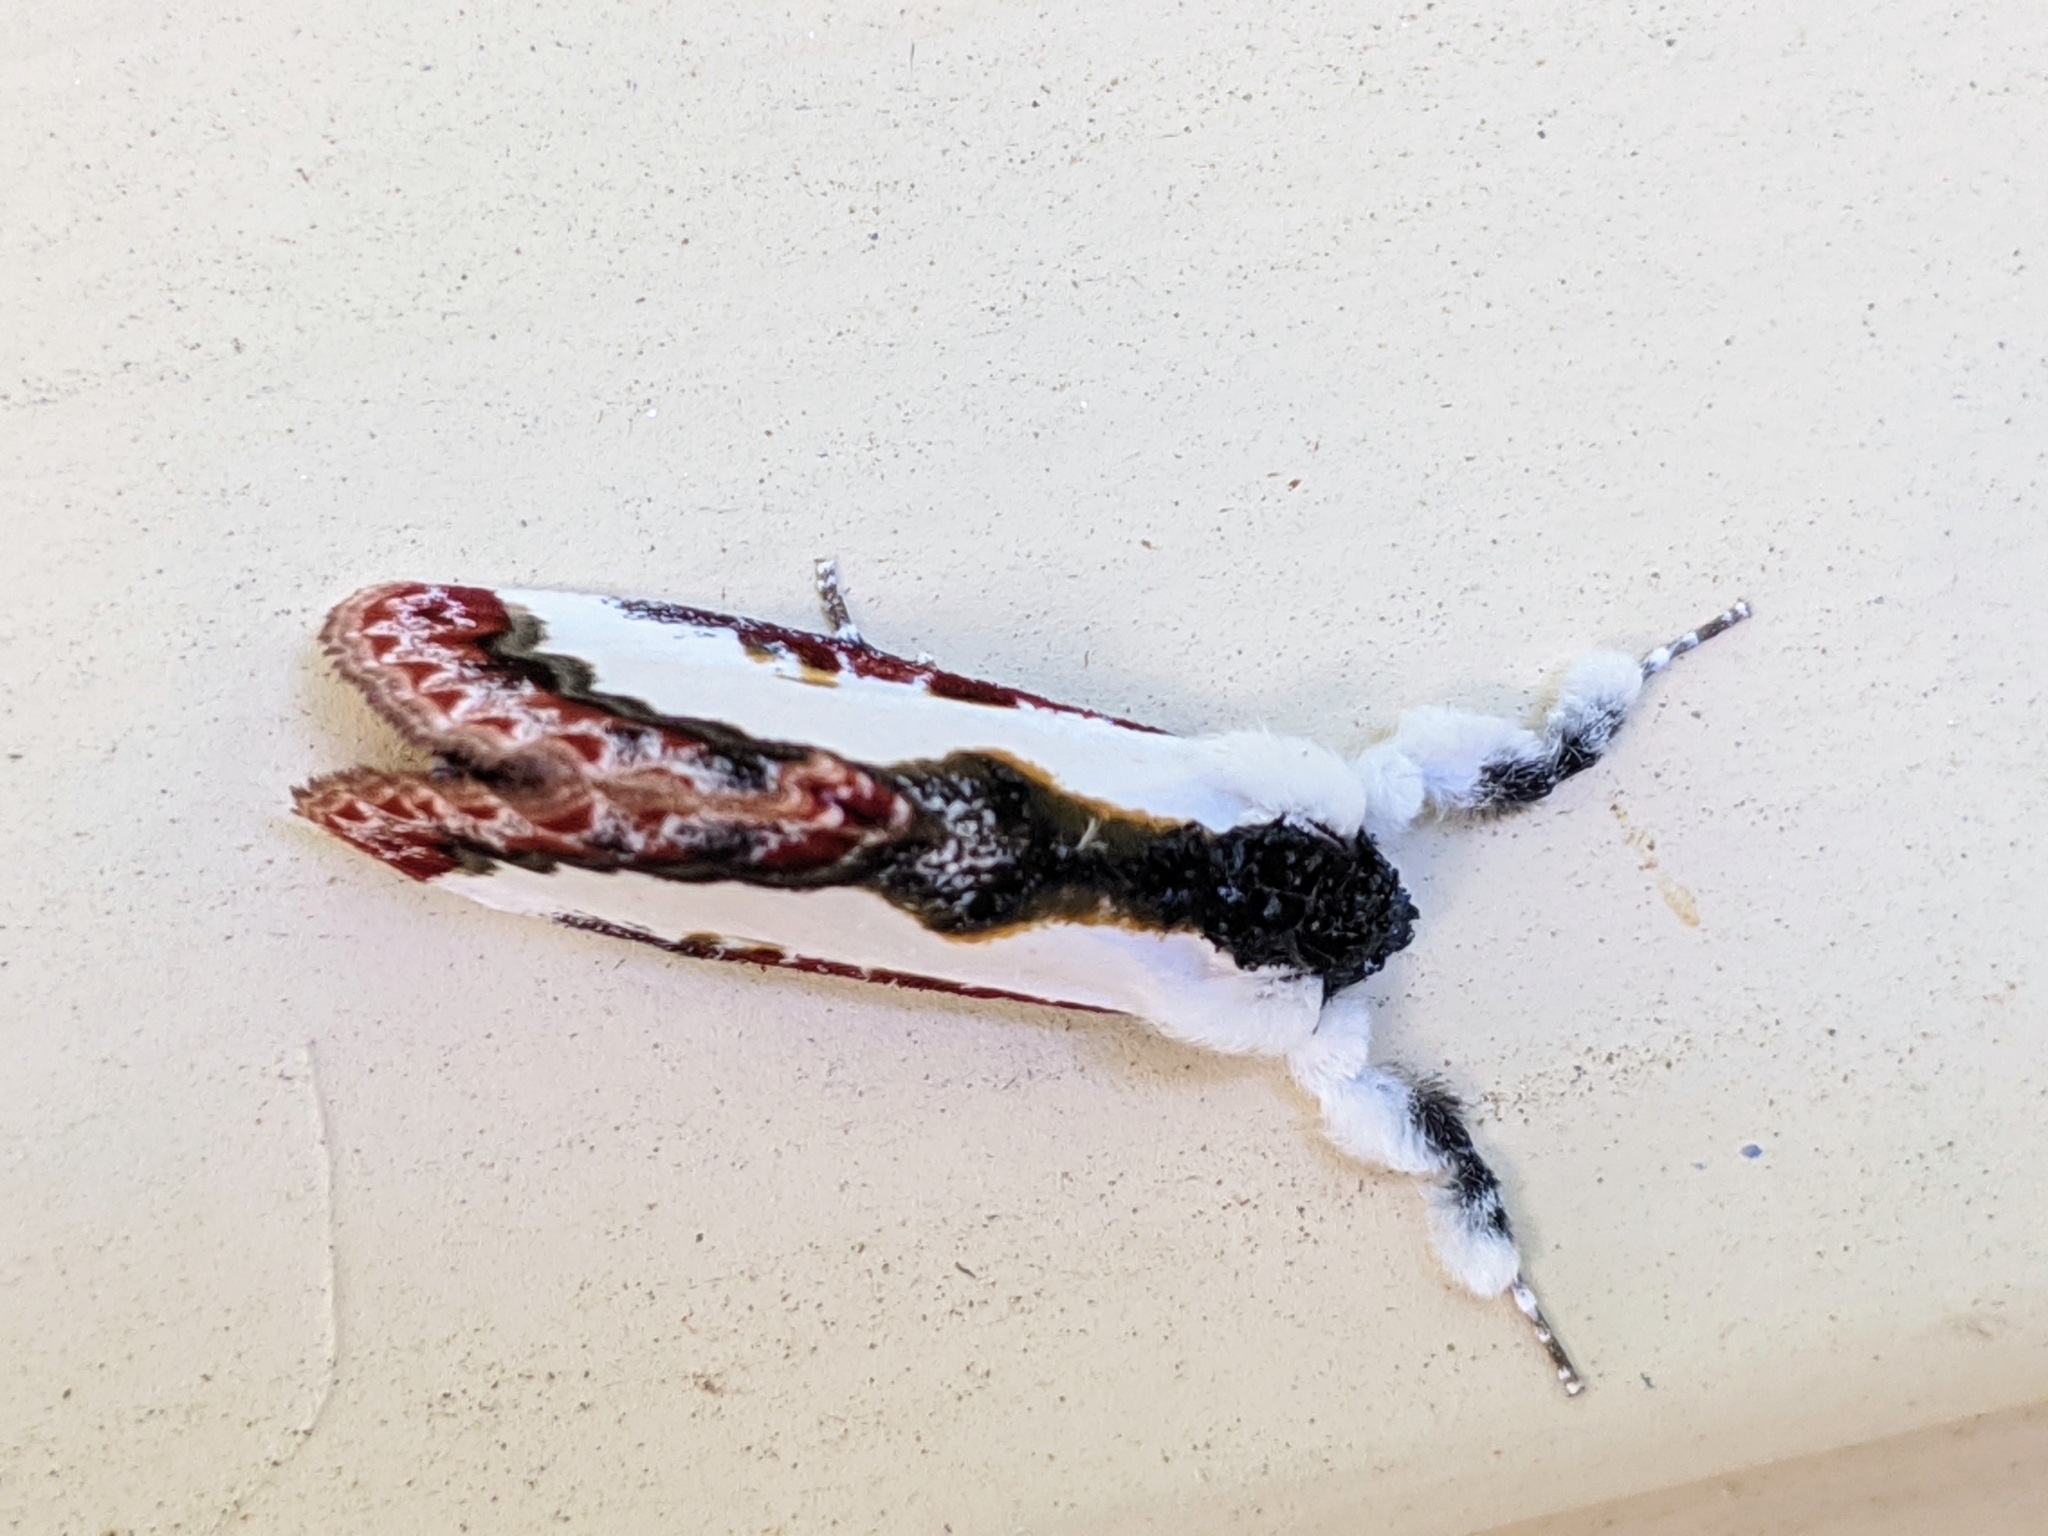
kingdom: Animalia
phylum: Arthropoda
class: Insecta
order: Lepidoptera
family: Noctuidae
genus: Eudryas
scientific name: Eudryas unio
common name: Pearly wood-nymph
